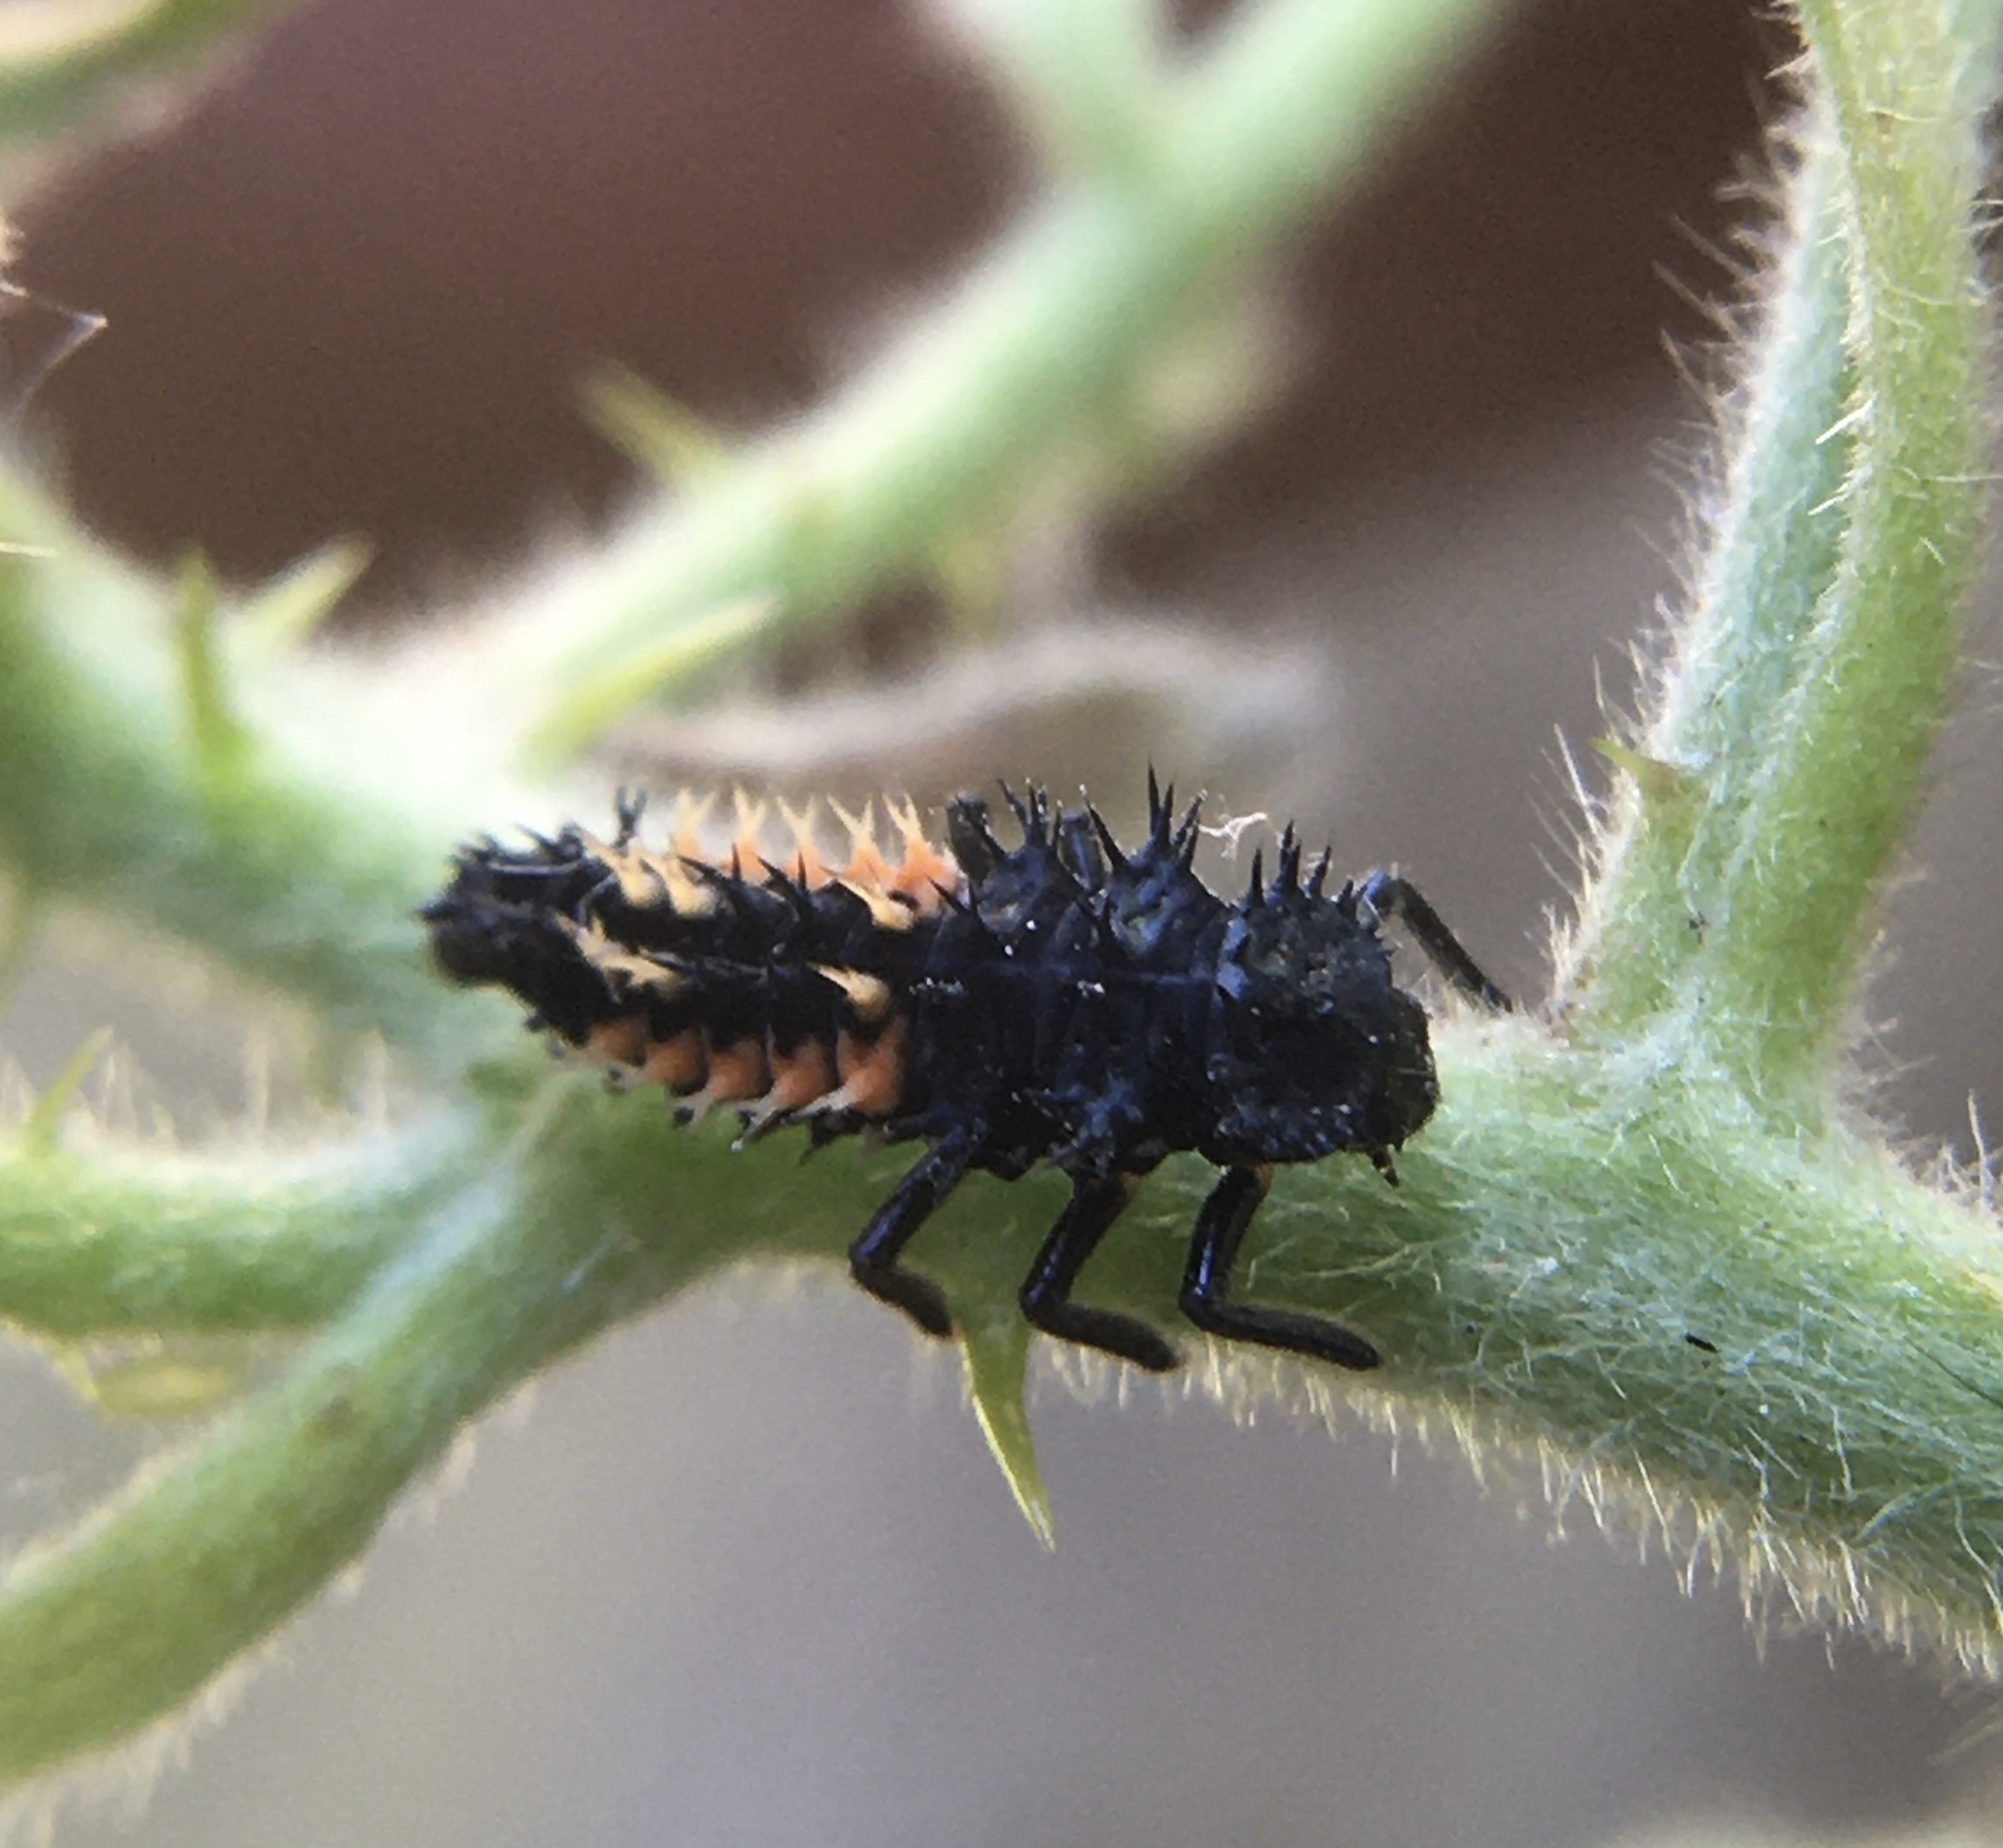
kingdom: Animalia
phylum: Arthropoda
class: Insecta
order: Coleoptera
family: Coccinellidae
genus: Harmonia
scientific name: Harmonia axyridis
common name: Harlequin ladybird
